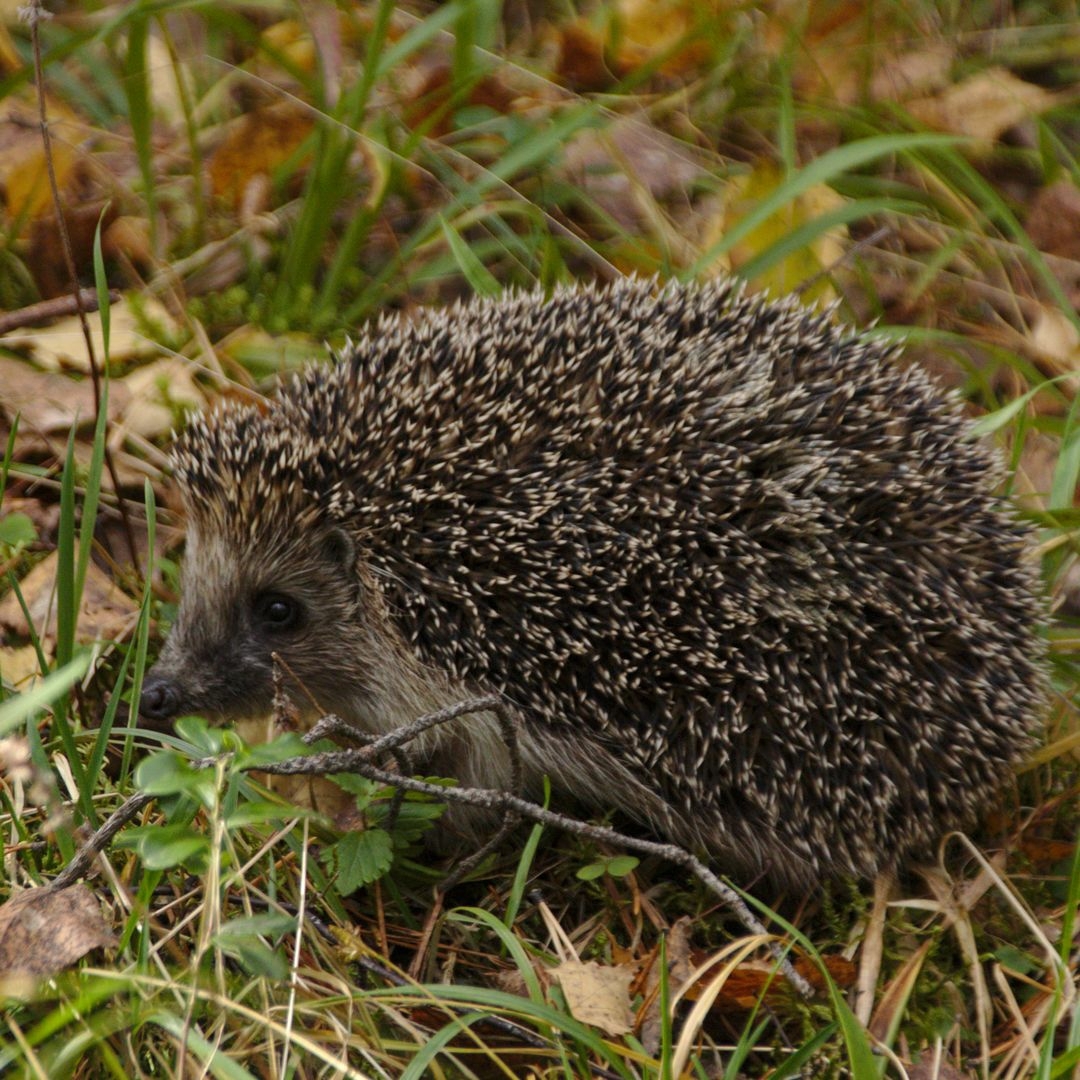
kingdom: Animalia
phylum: Chordata
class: Mammalia
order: Erinaceomorpha
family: Erinaceidae
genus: Erinaceus
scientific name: Erinaceus roumanicus
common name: Northern white-breasted hedgehog
